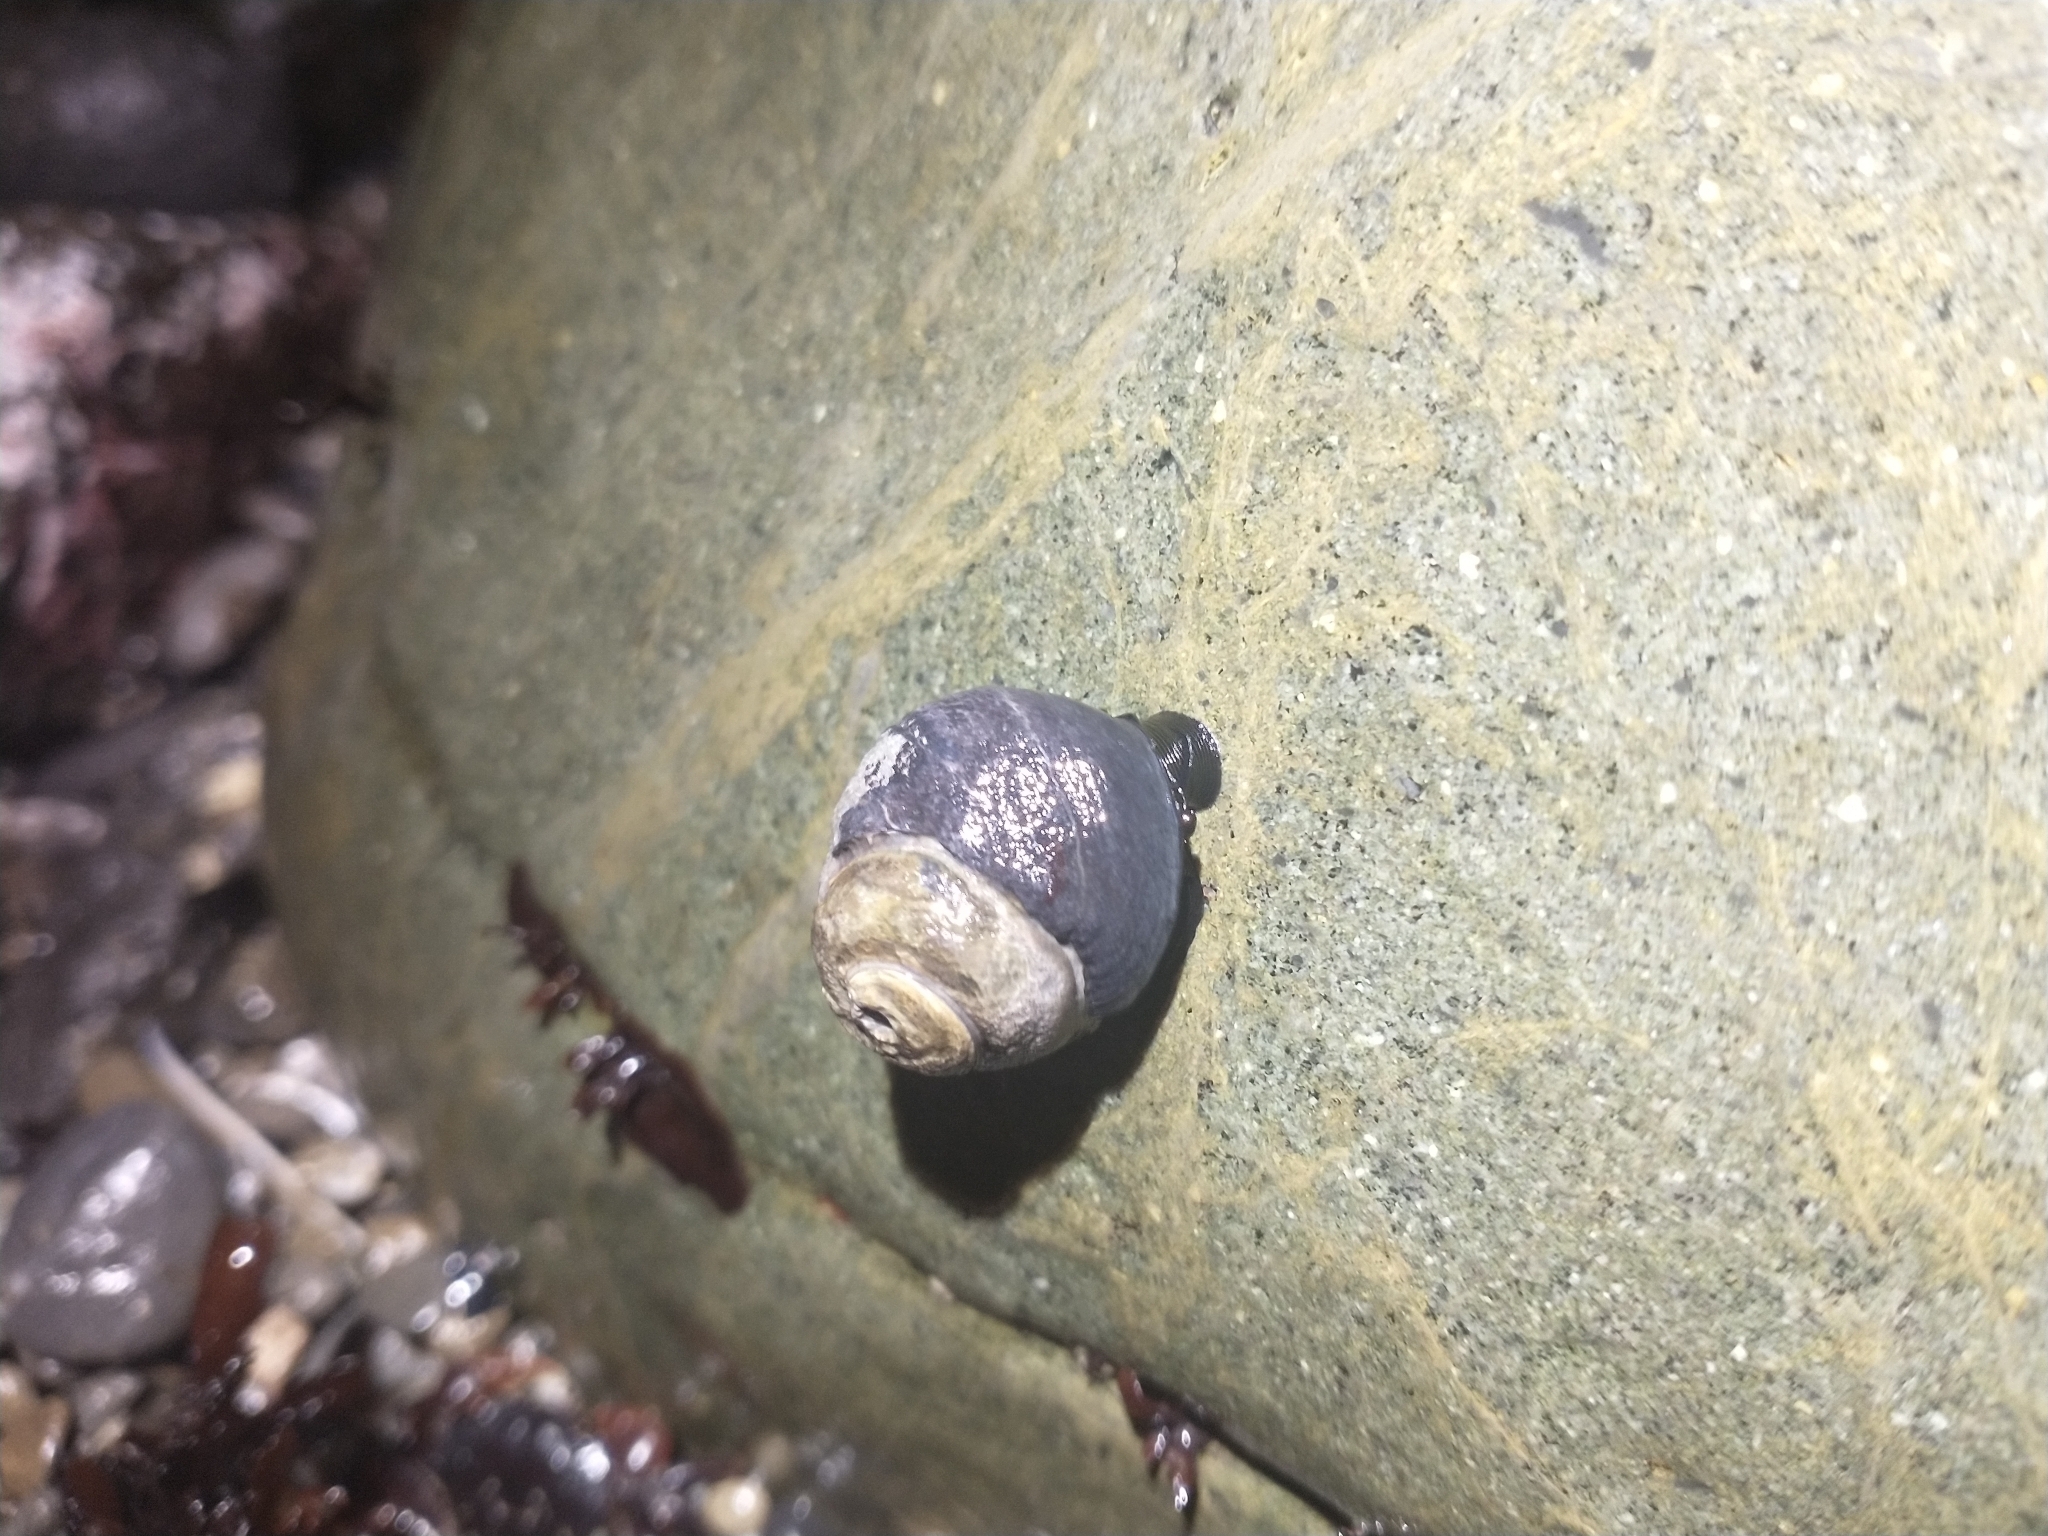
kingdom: Animalia
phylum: Mollusca
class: Gastropoda
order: Trochida
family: Tegulidae
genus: Tegula
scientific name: Tegula funebralis
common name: Black tegula
